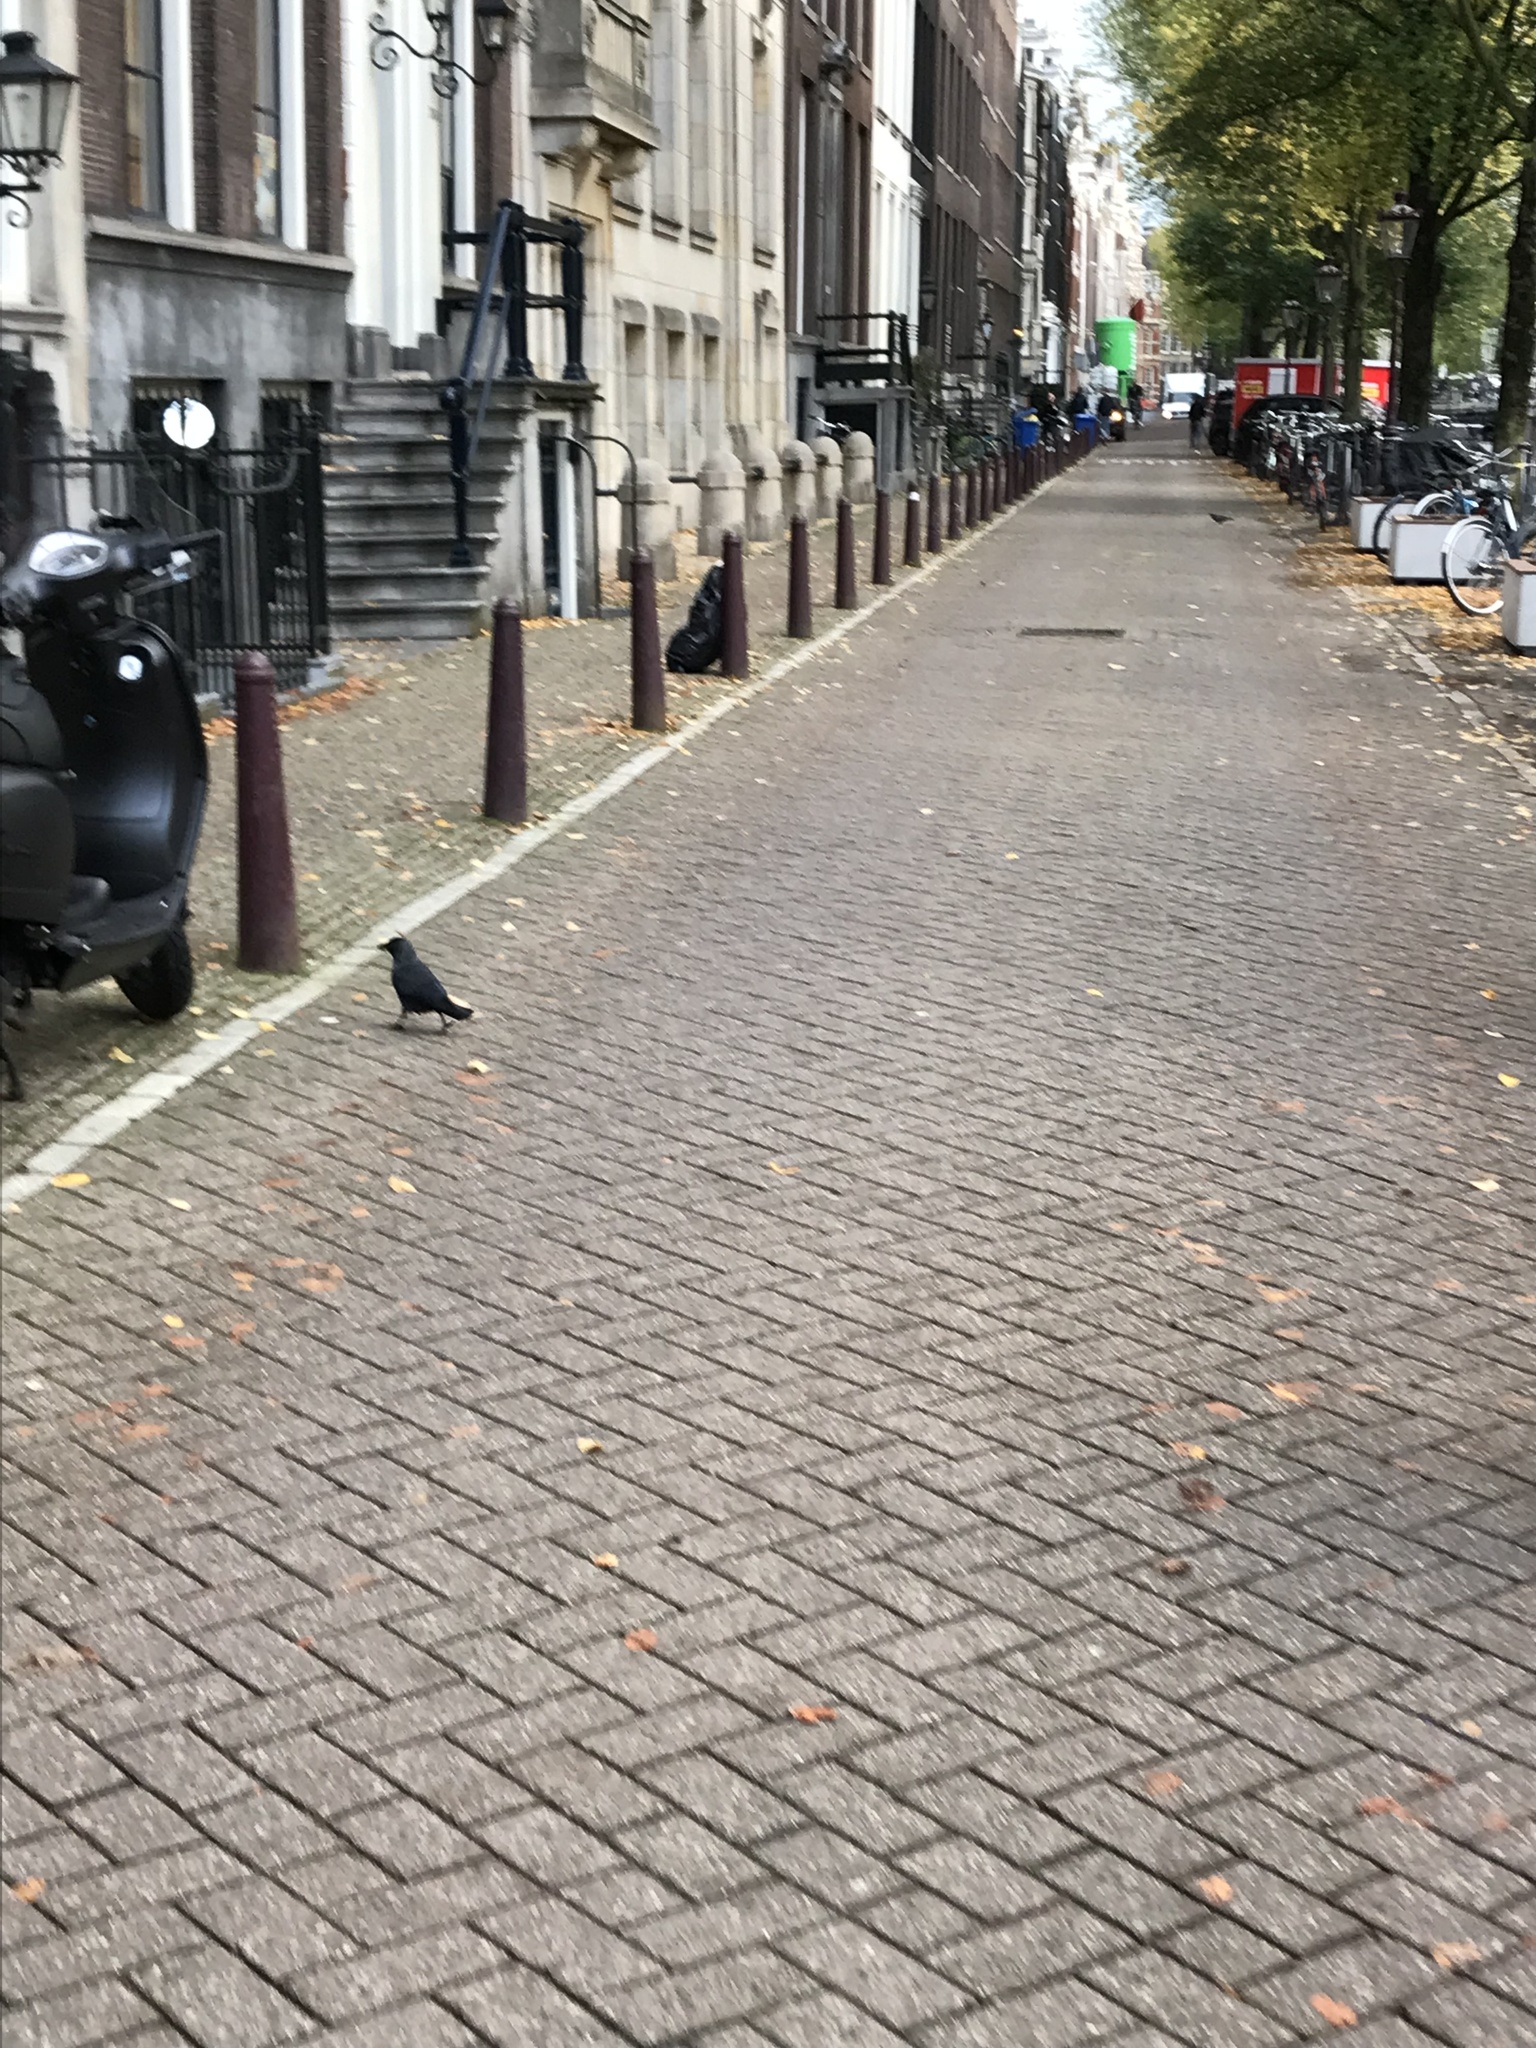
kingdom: Animalia
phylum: Chordata
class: Aves
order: Passeriformes
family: Corvidae
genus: Coloeus
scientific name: Coloeus monedula
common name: Western jackdaw
